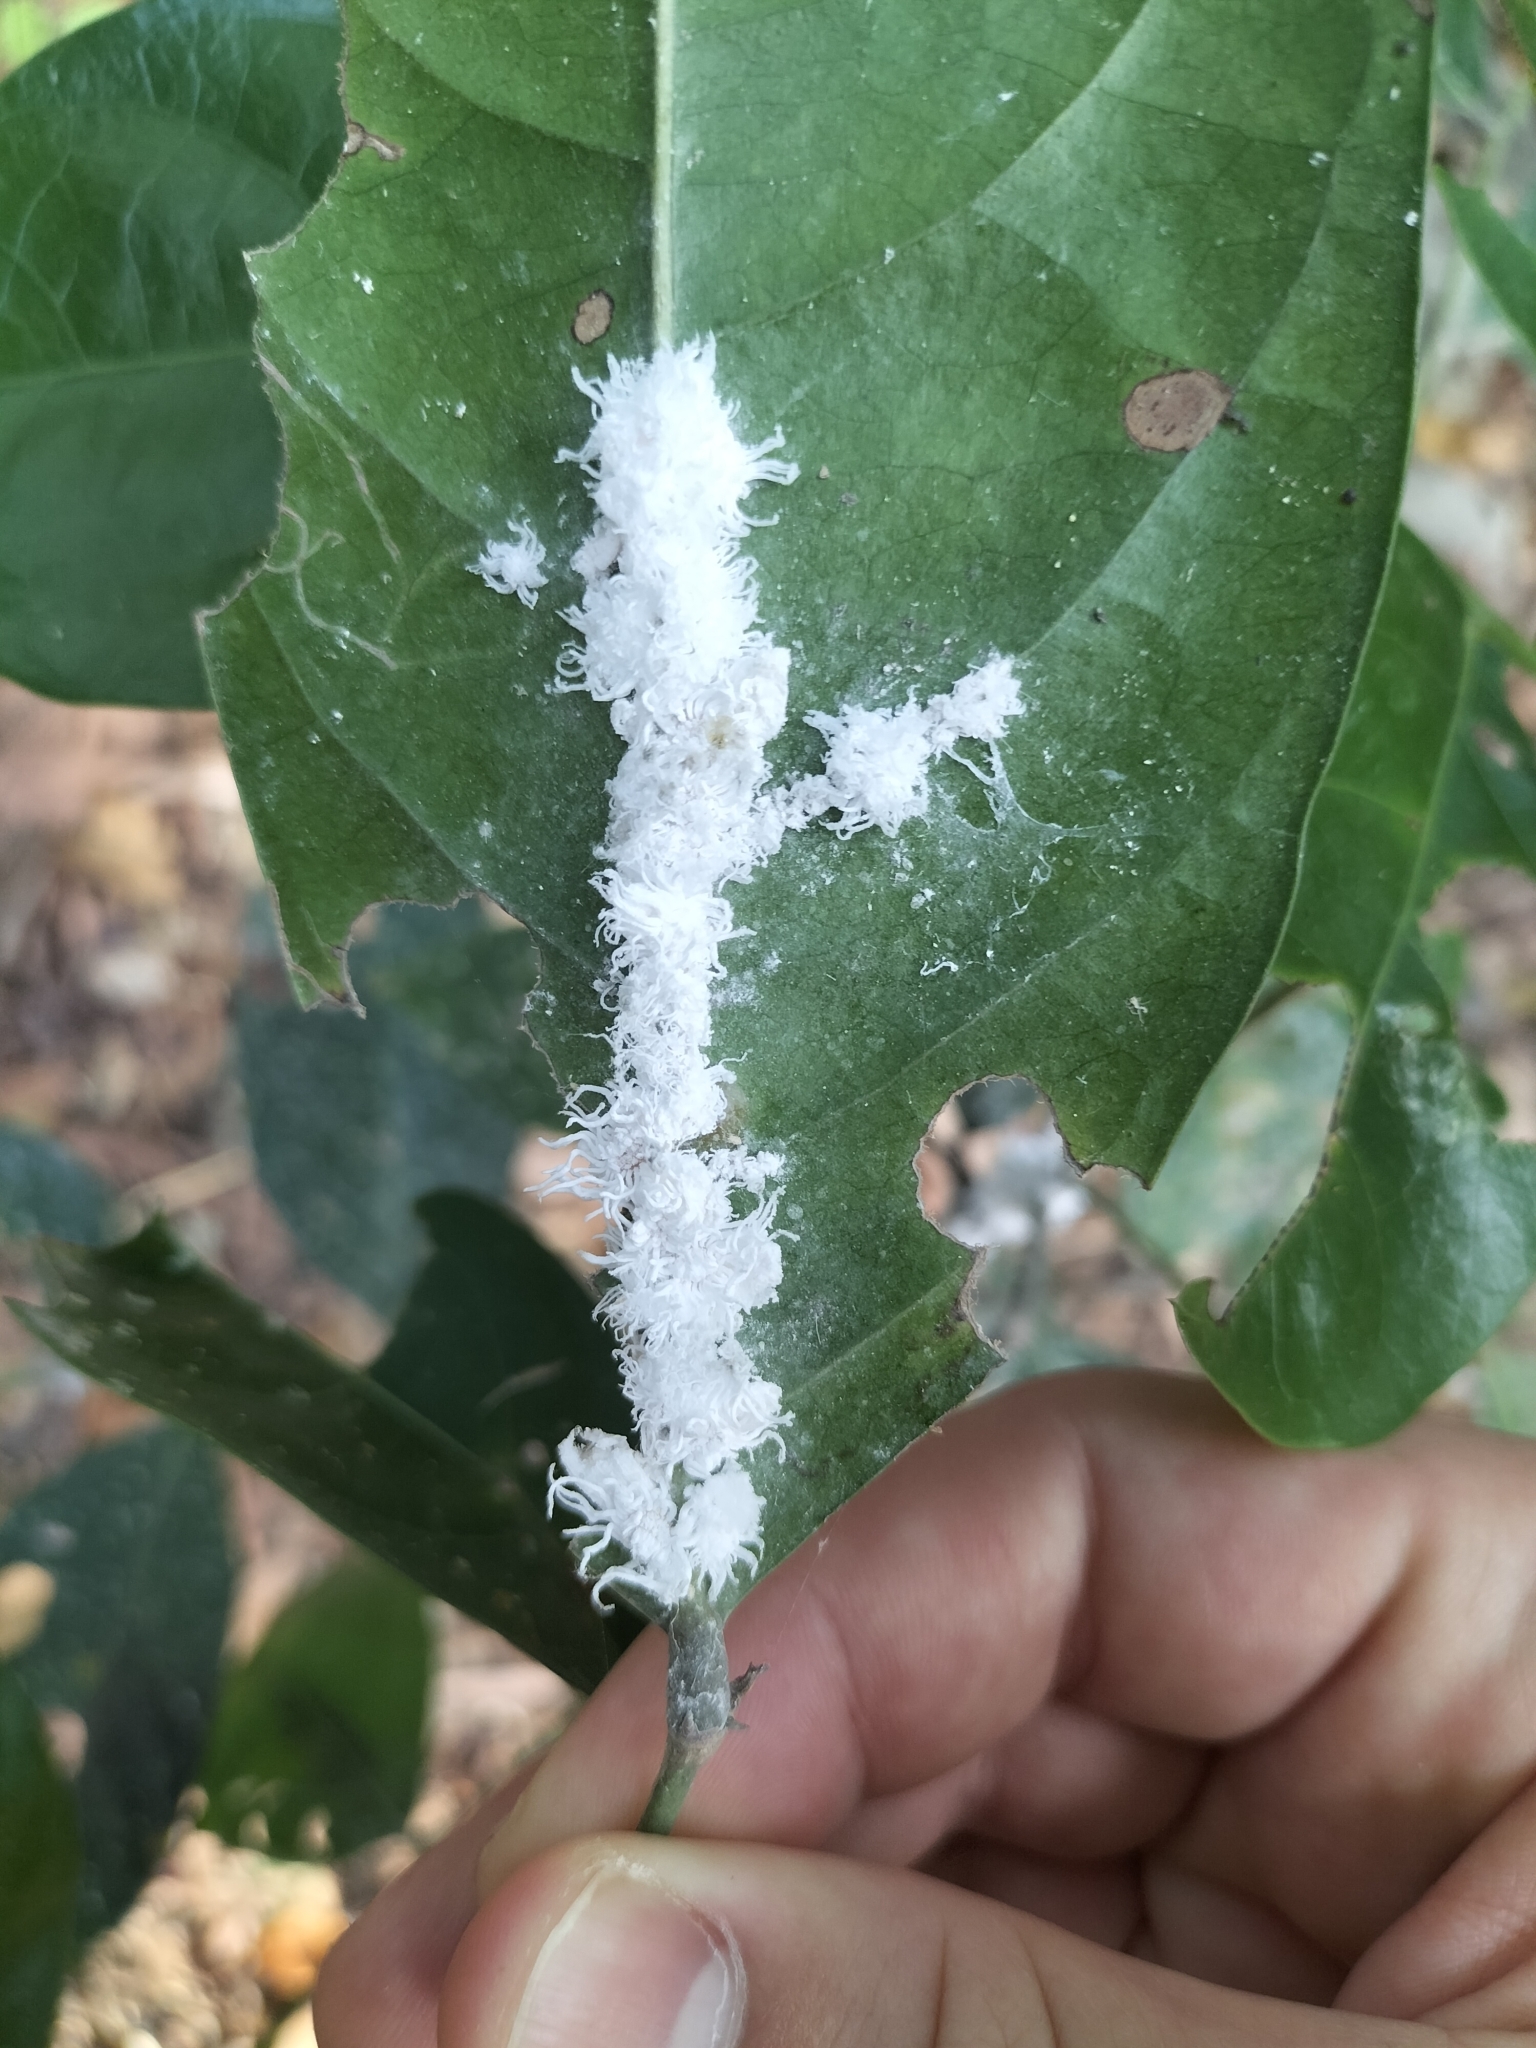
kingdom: Animalia
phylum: Arthropoda
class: Insecta
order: Hemiptera
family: Margarodidae
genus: Icerya
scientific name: Icerya aegyptiaca
